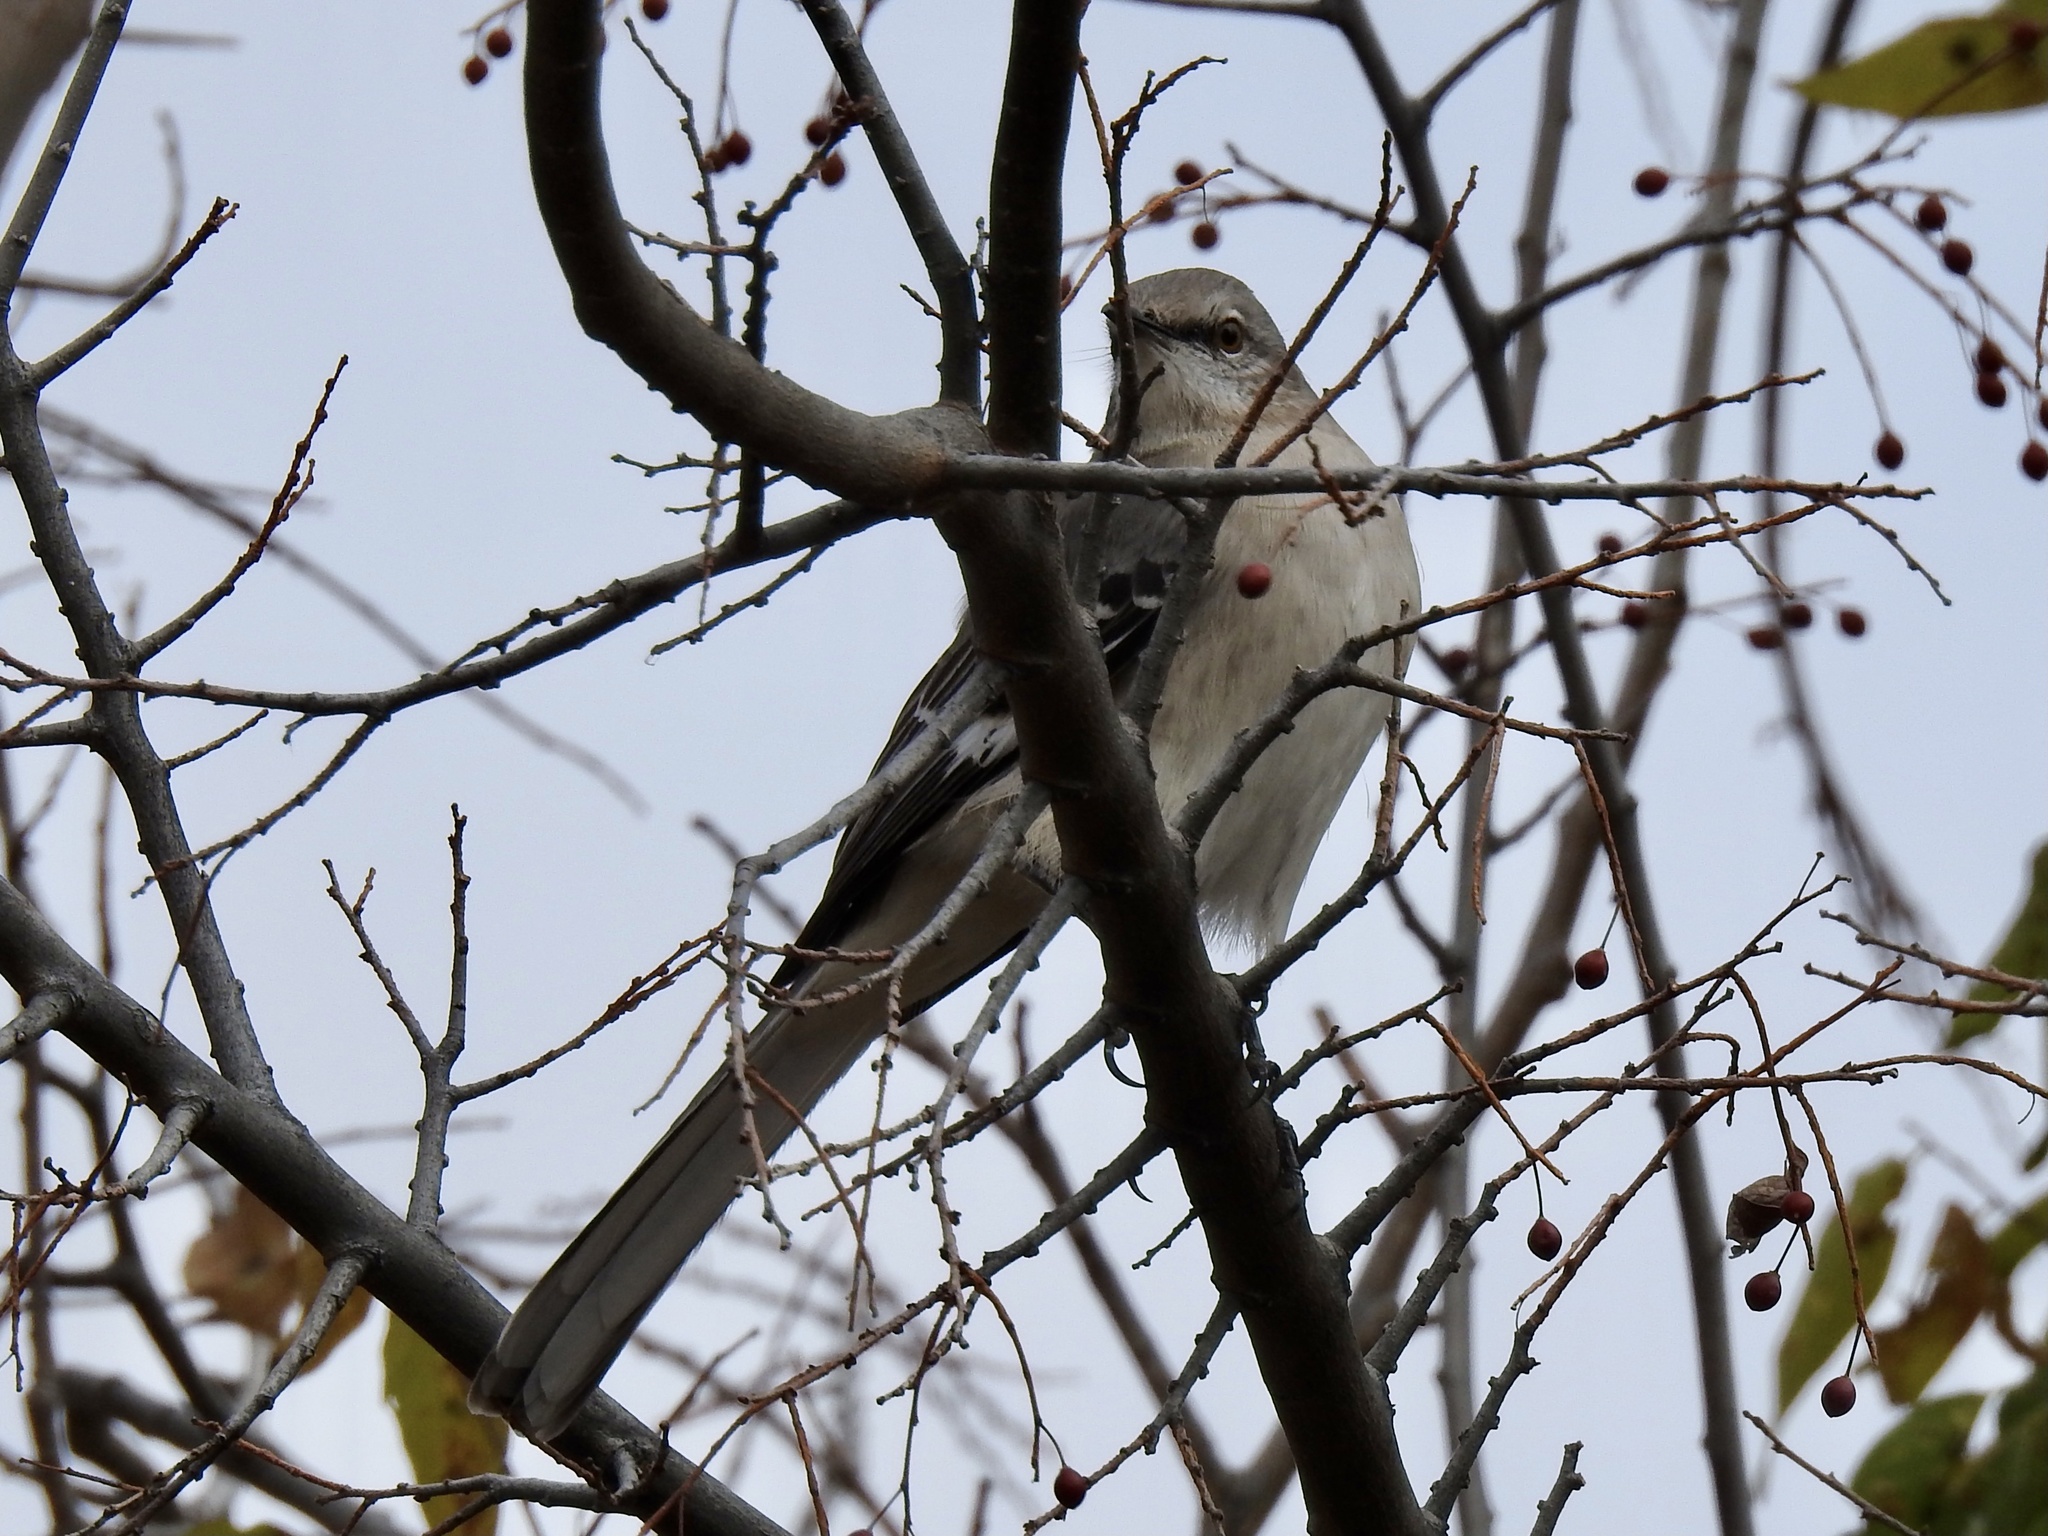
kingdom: Animalia
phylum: Chordata
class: Aves
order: Passeriformes
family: Mimidae
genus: Mimus
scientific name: Mimus polyglottos
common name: Northern mockingbird
